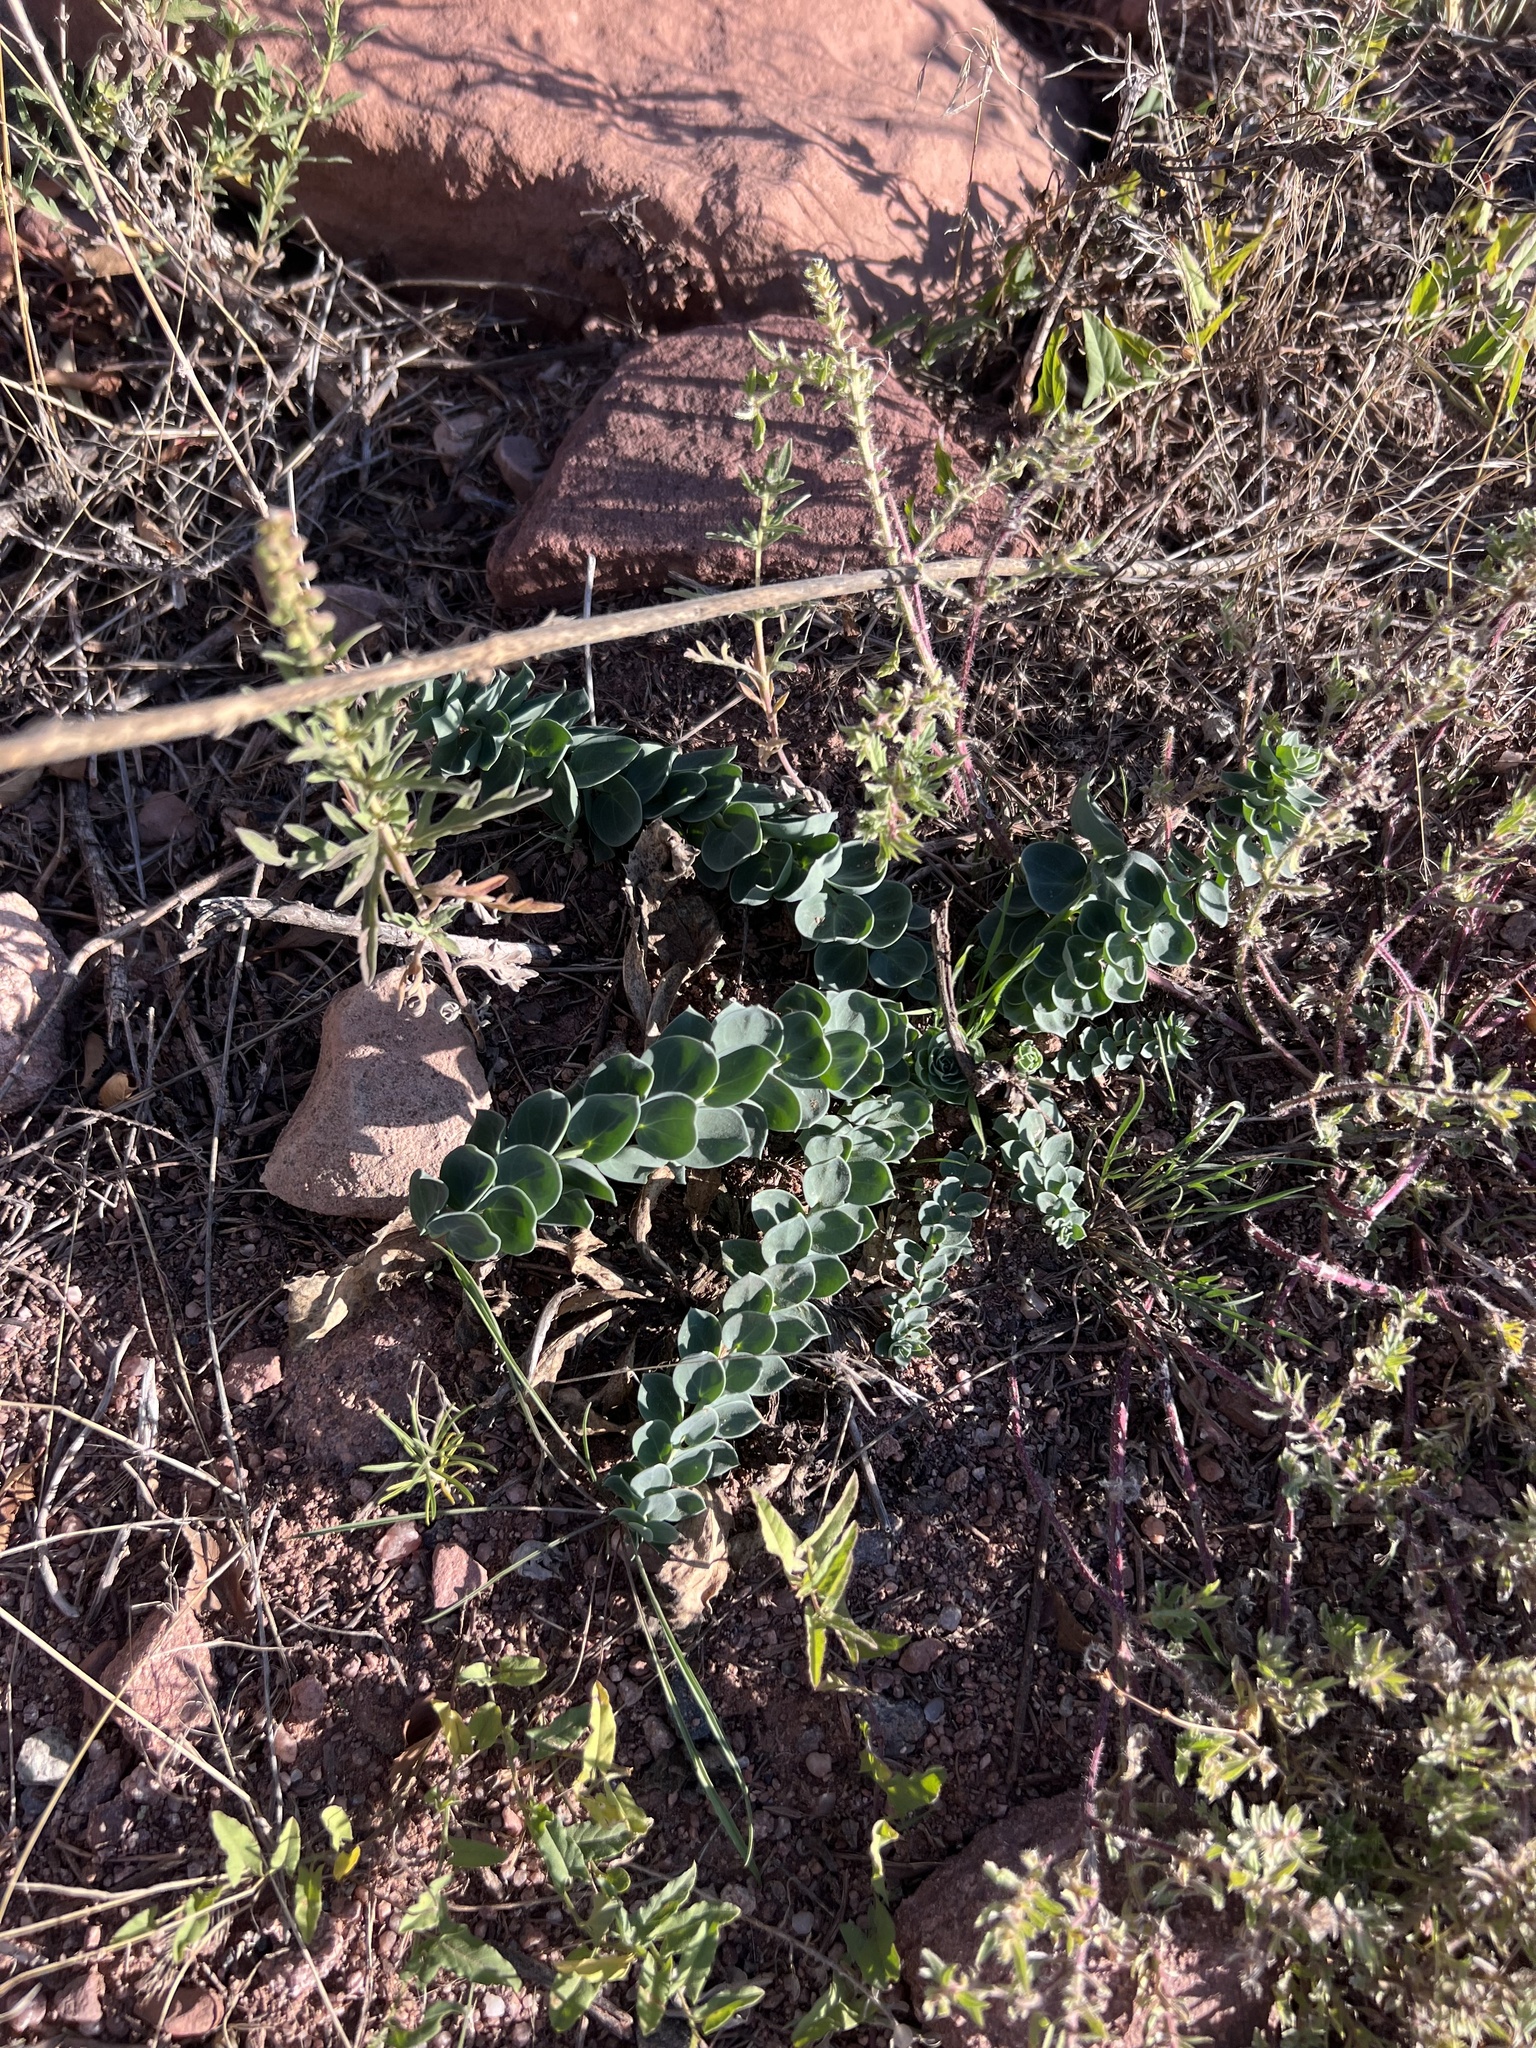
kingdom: Plantae
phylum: Tracheophyta
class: Magnoliopsida
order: Lamiales
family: Plantaginaceae
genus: Linaria
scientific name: Linaria dalmatica
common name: Dalmatian toadflax
